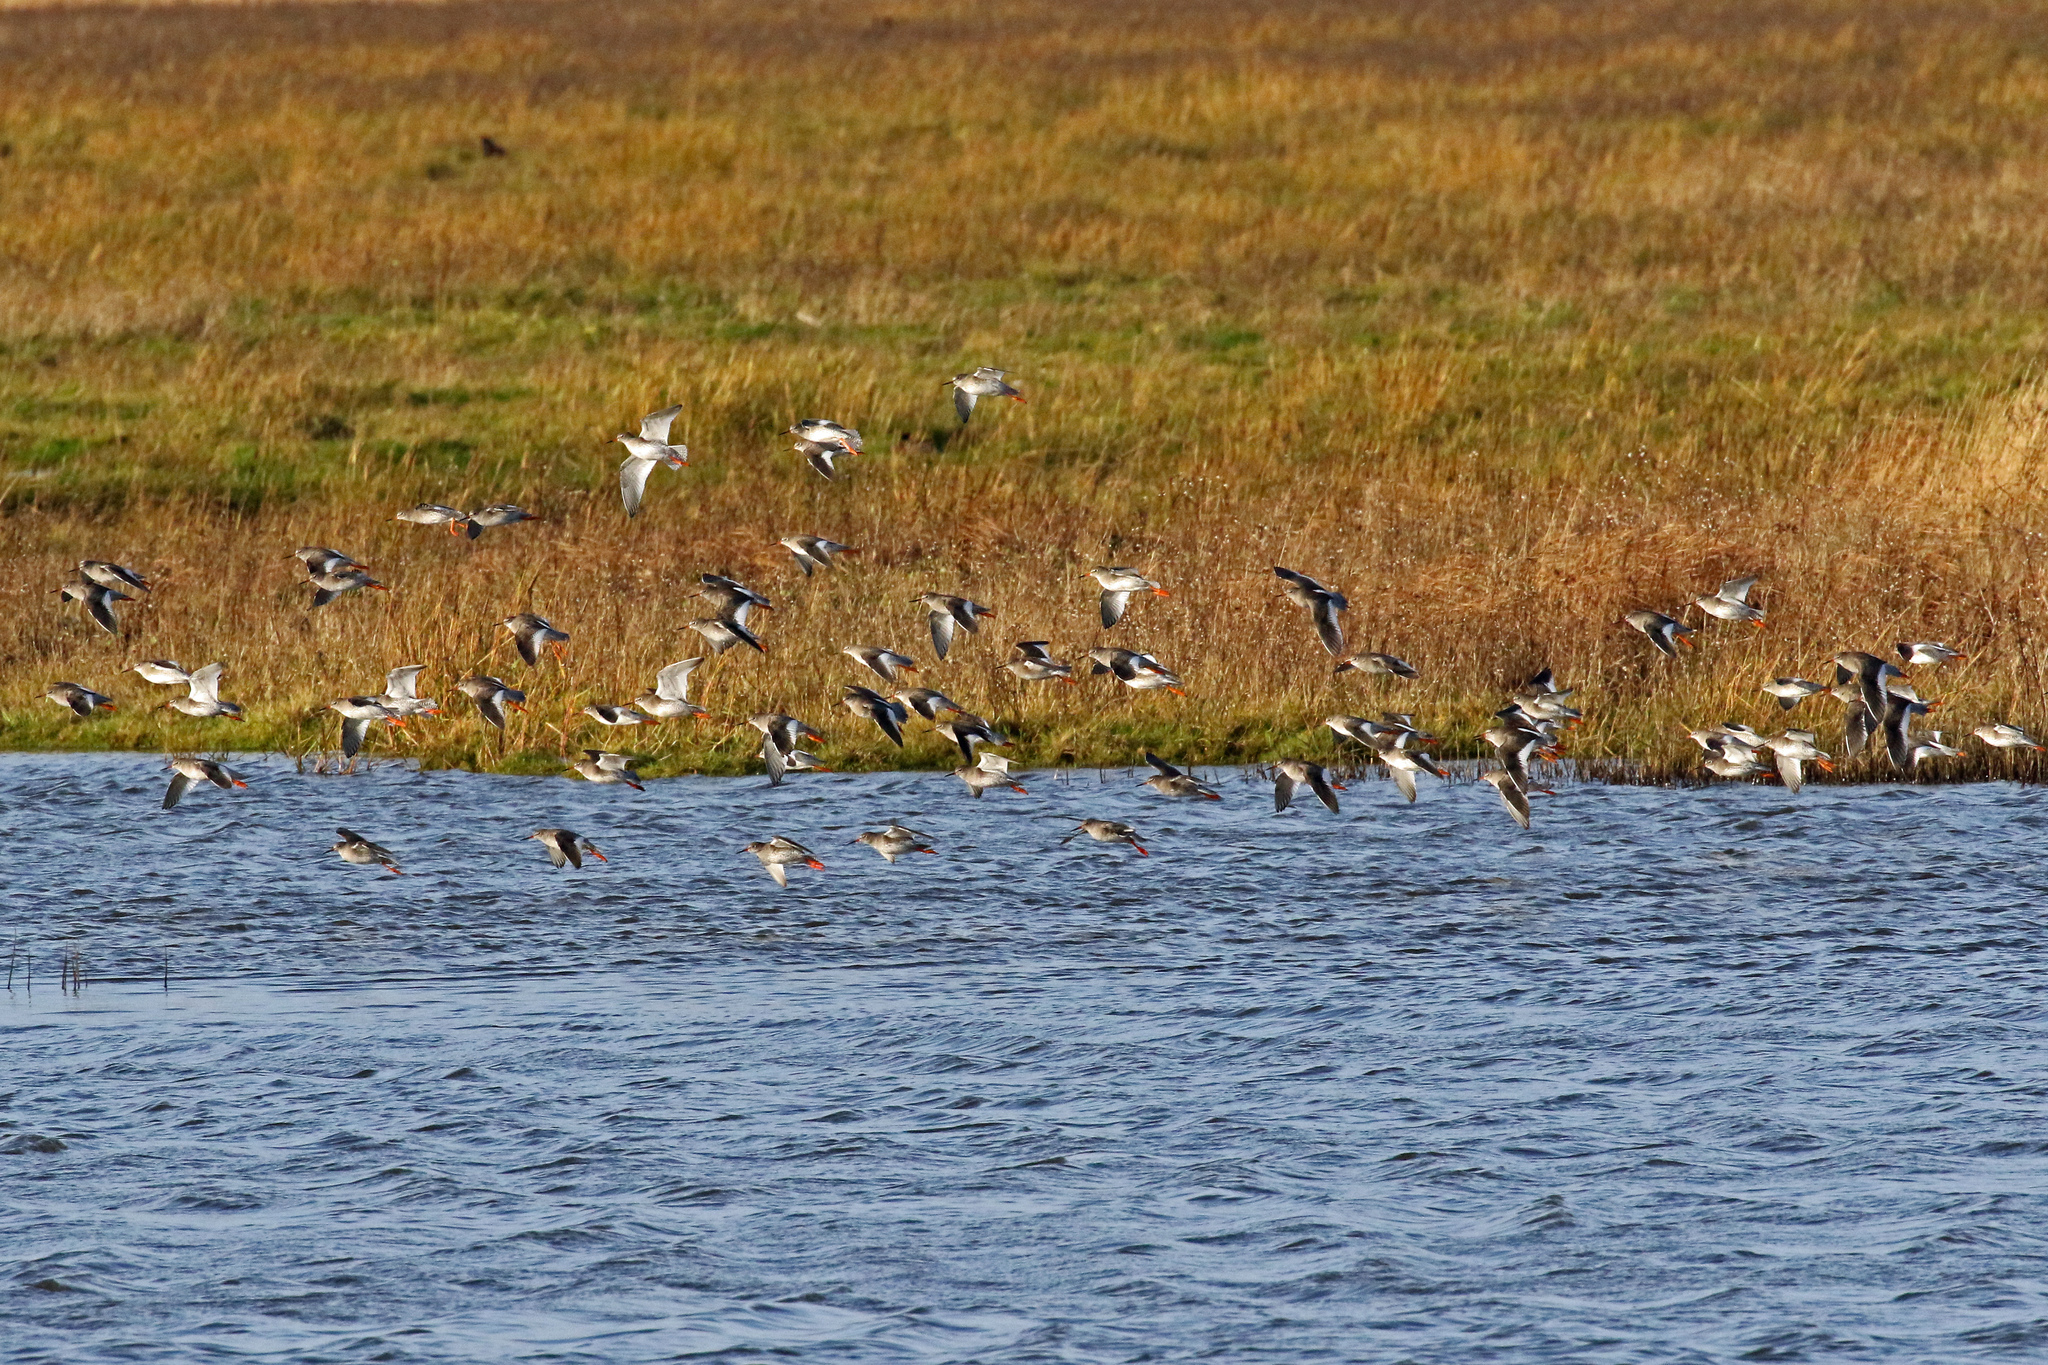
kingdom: Animalia
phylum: Chordata
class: Aves
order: Charadriiformes
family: Scolopacidae
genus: Tringa
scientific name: Tringa totanus
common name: Common redshank
